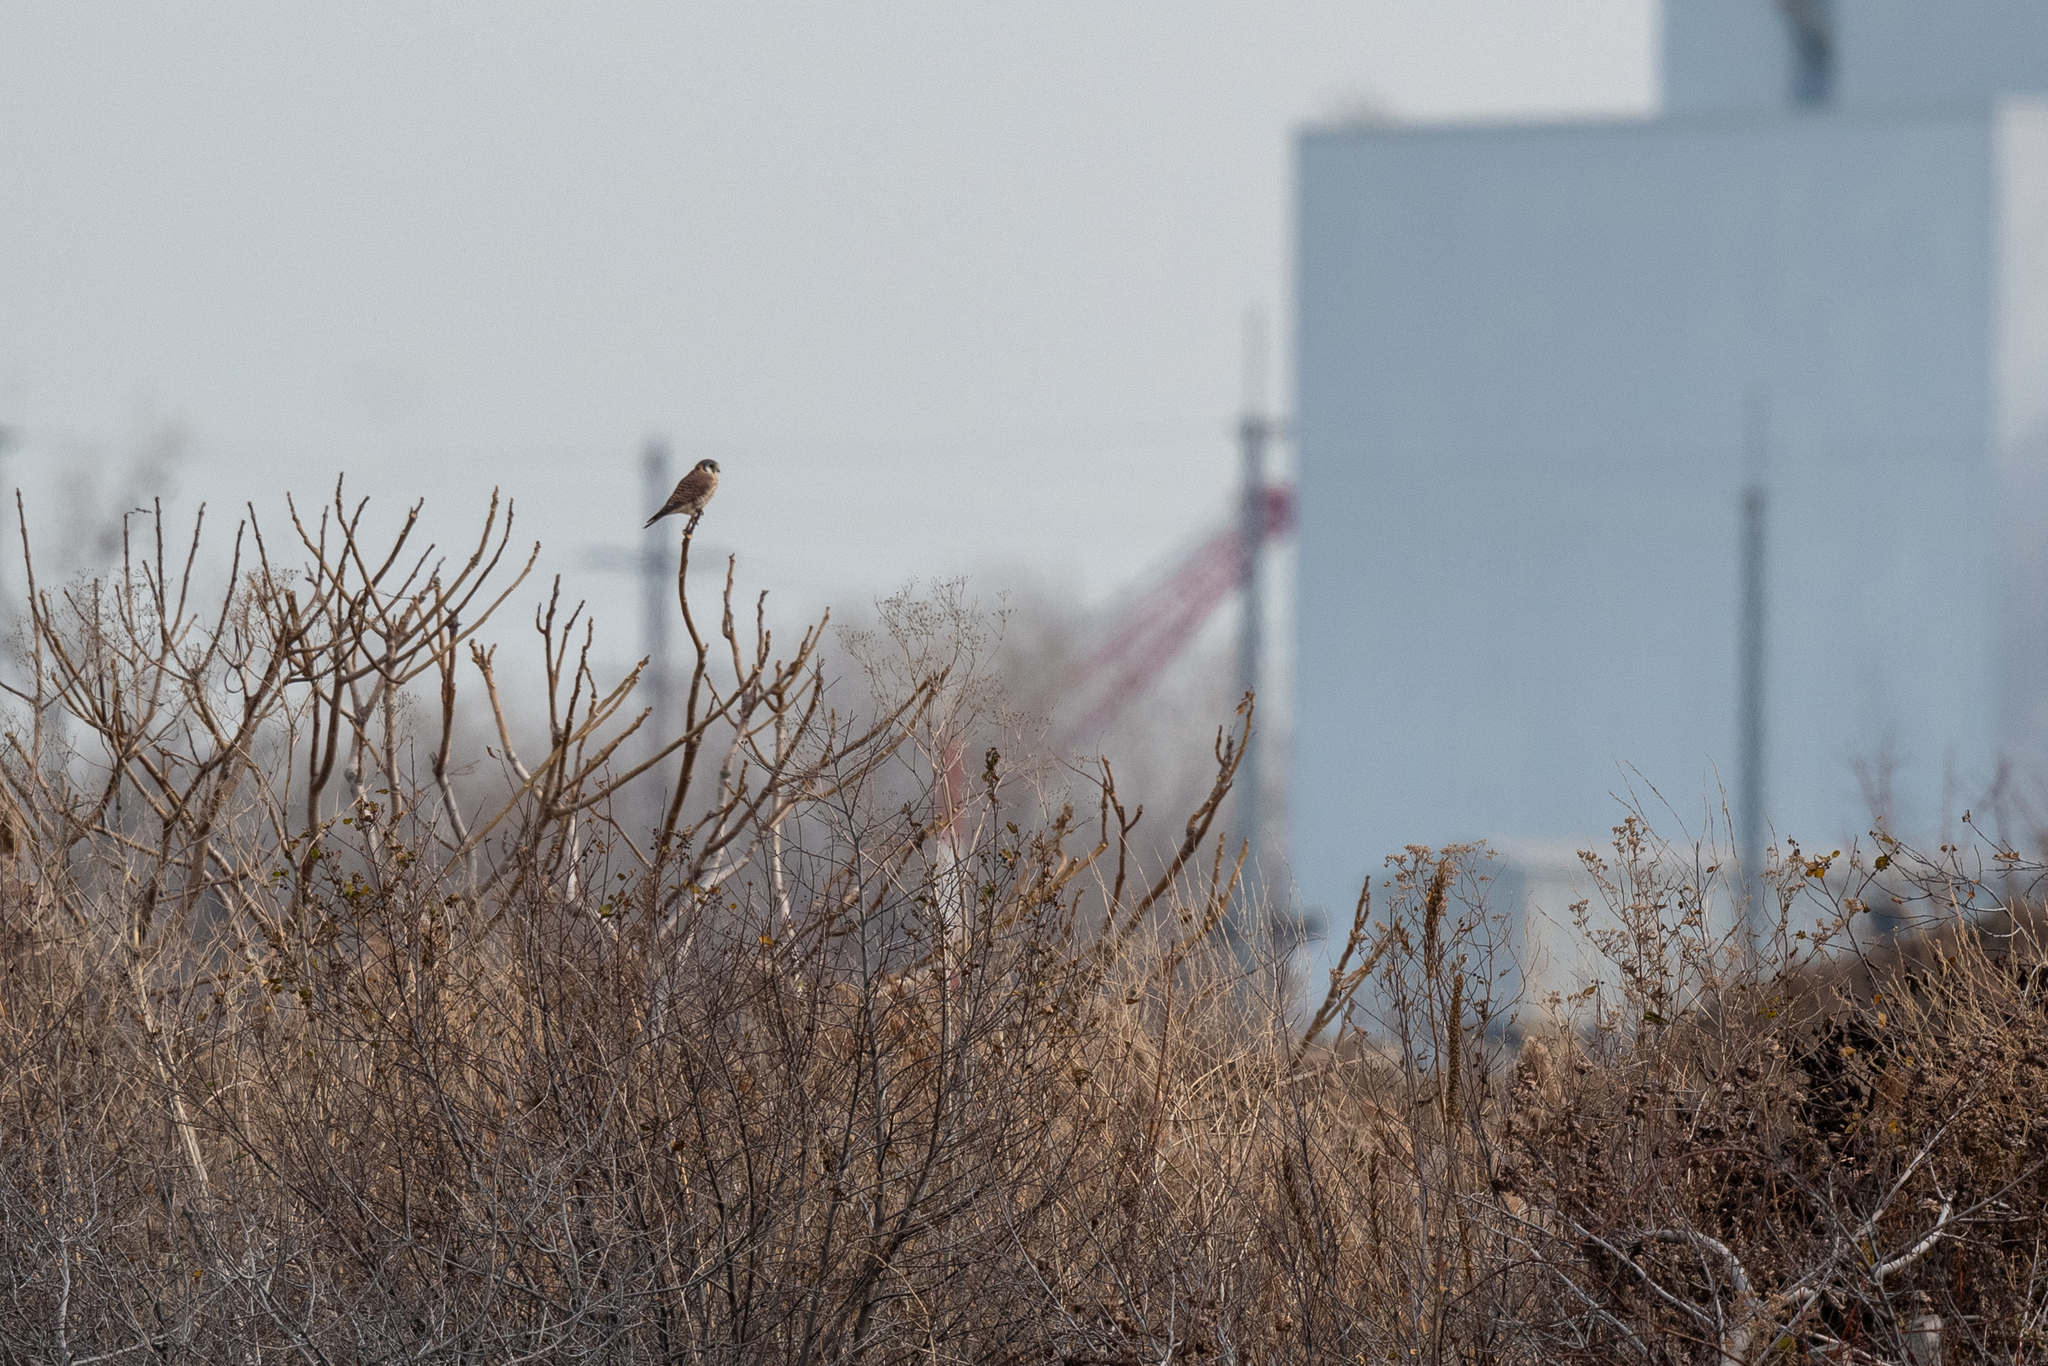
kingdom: Animalia
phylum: Chordata
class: Aves
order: Falconiformes
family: Falconidae
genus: Falco
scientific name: Falco sparverius
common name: American kestrel
